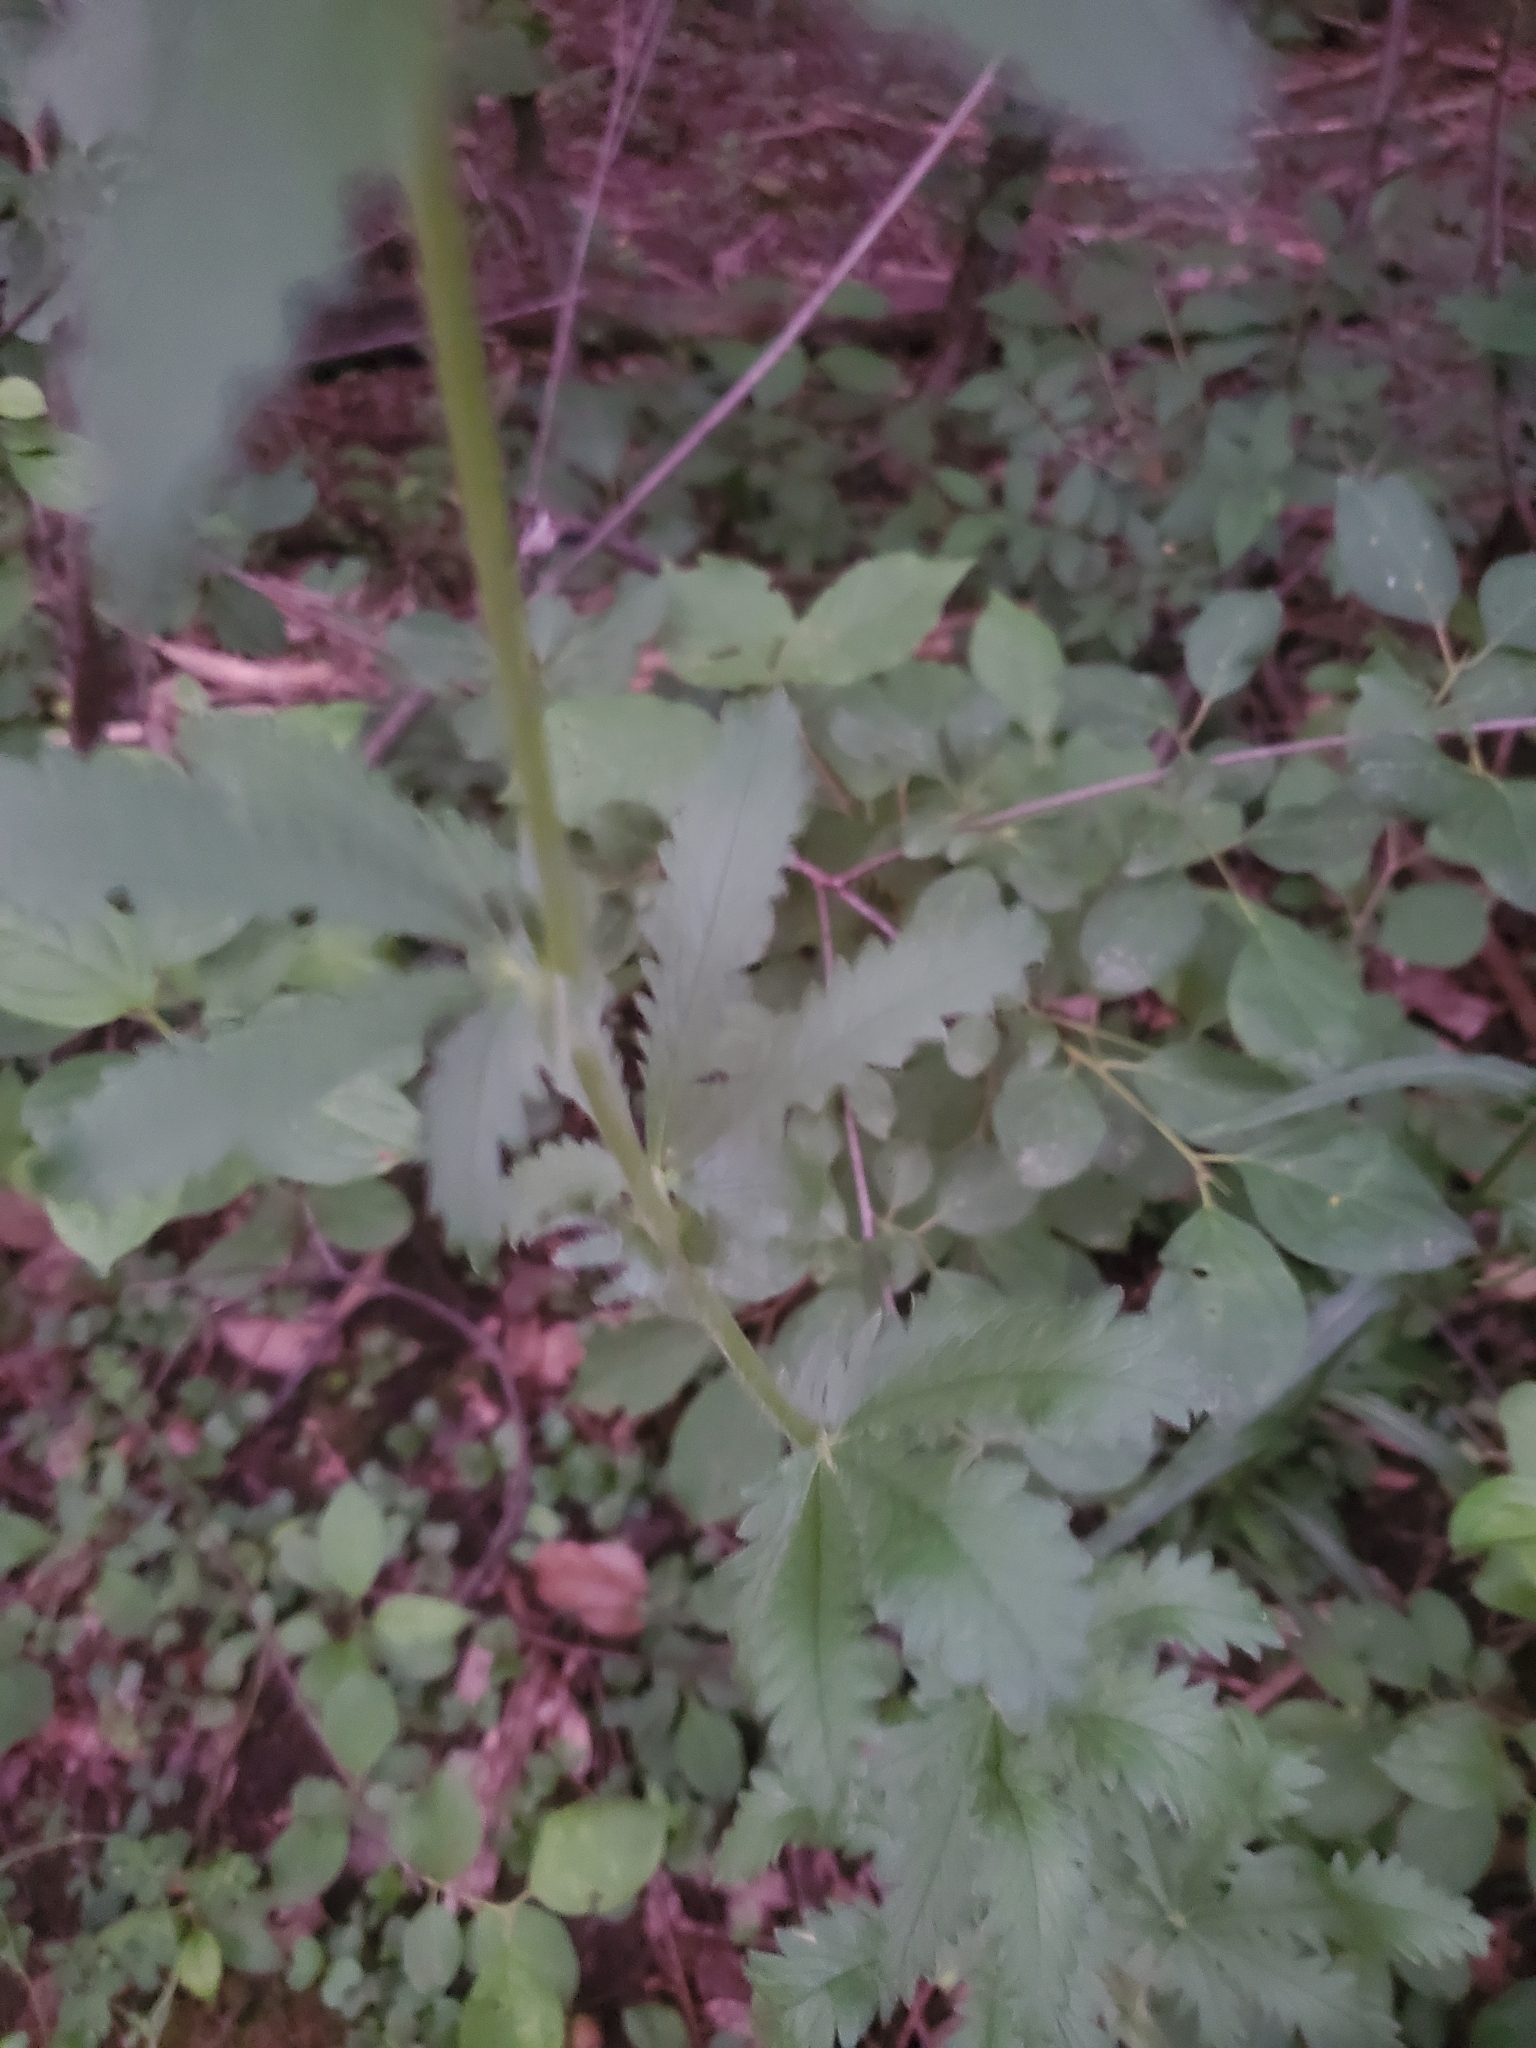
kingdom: Plantae
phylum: Tracheophyta
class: Magnoliopsida
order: Rosales
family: Rosaceae
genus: Potentilla
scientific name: Potentilla recta
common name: Sulphur cinquefoil
